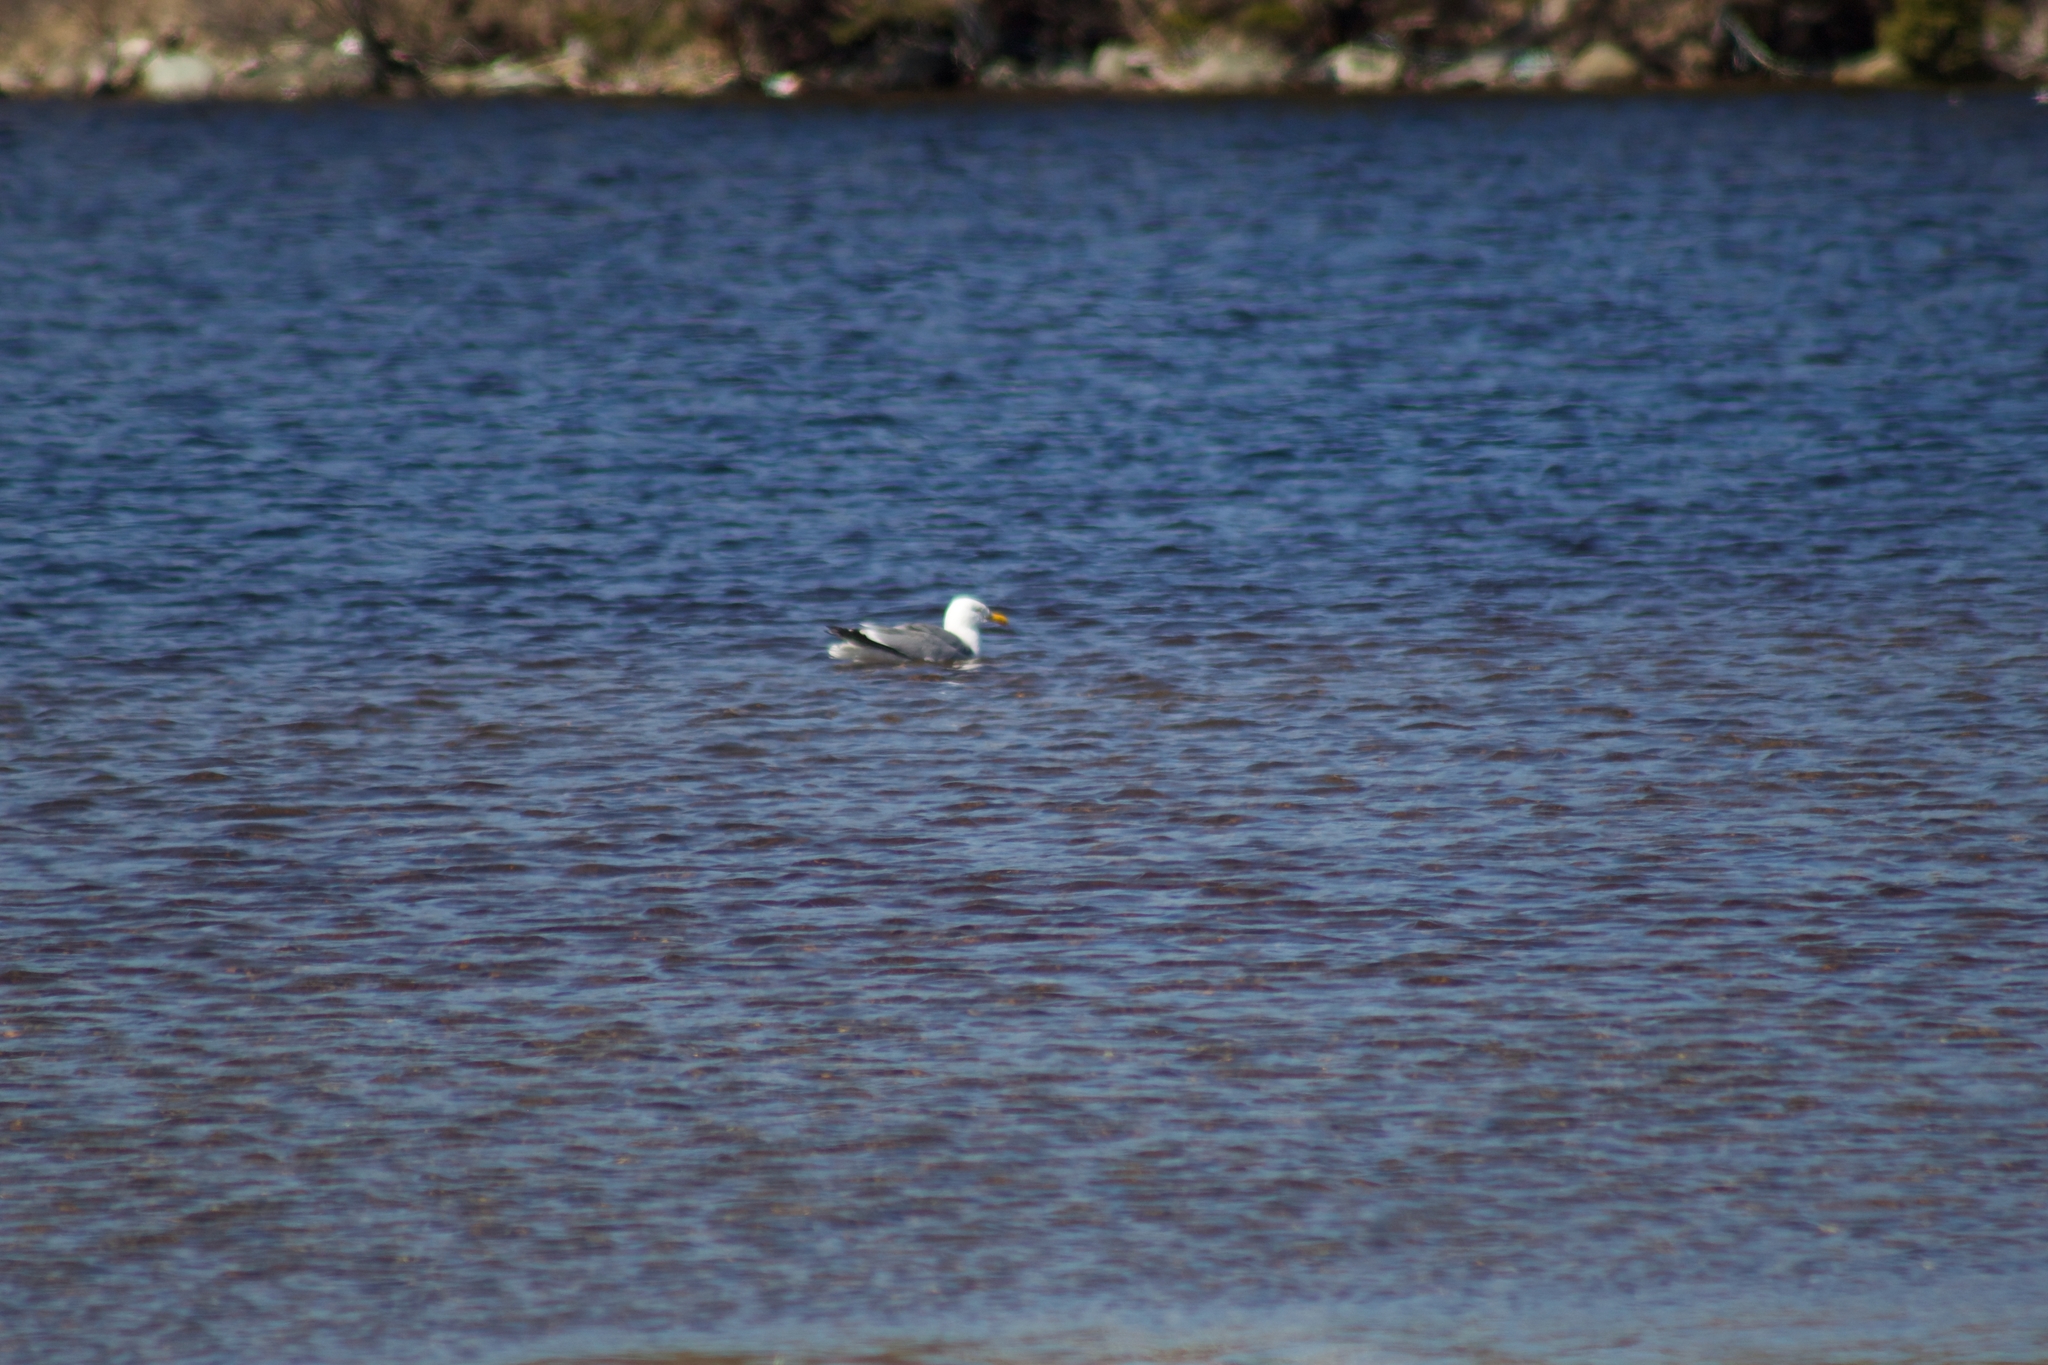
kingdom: Animalia
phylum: Chordata
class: Aves
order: Charadriiformes
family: Laridae
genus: Larus
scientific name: Larus argentatus
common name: Herring gull
